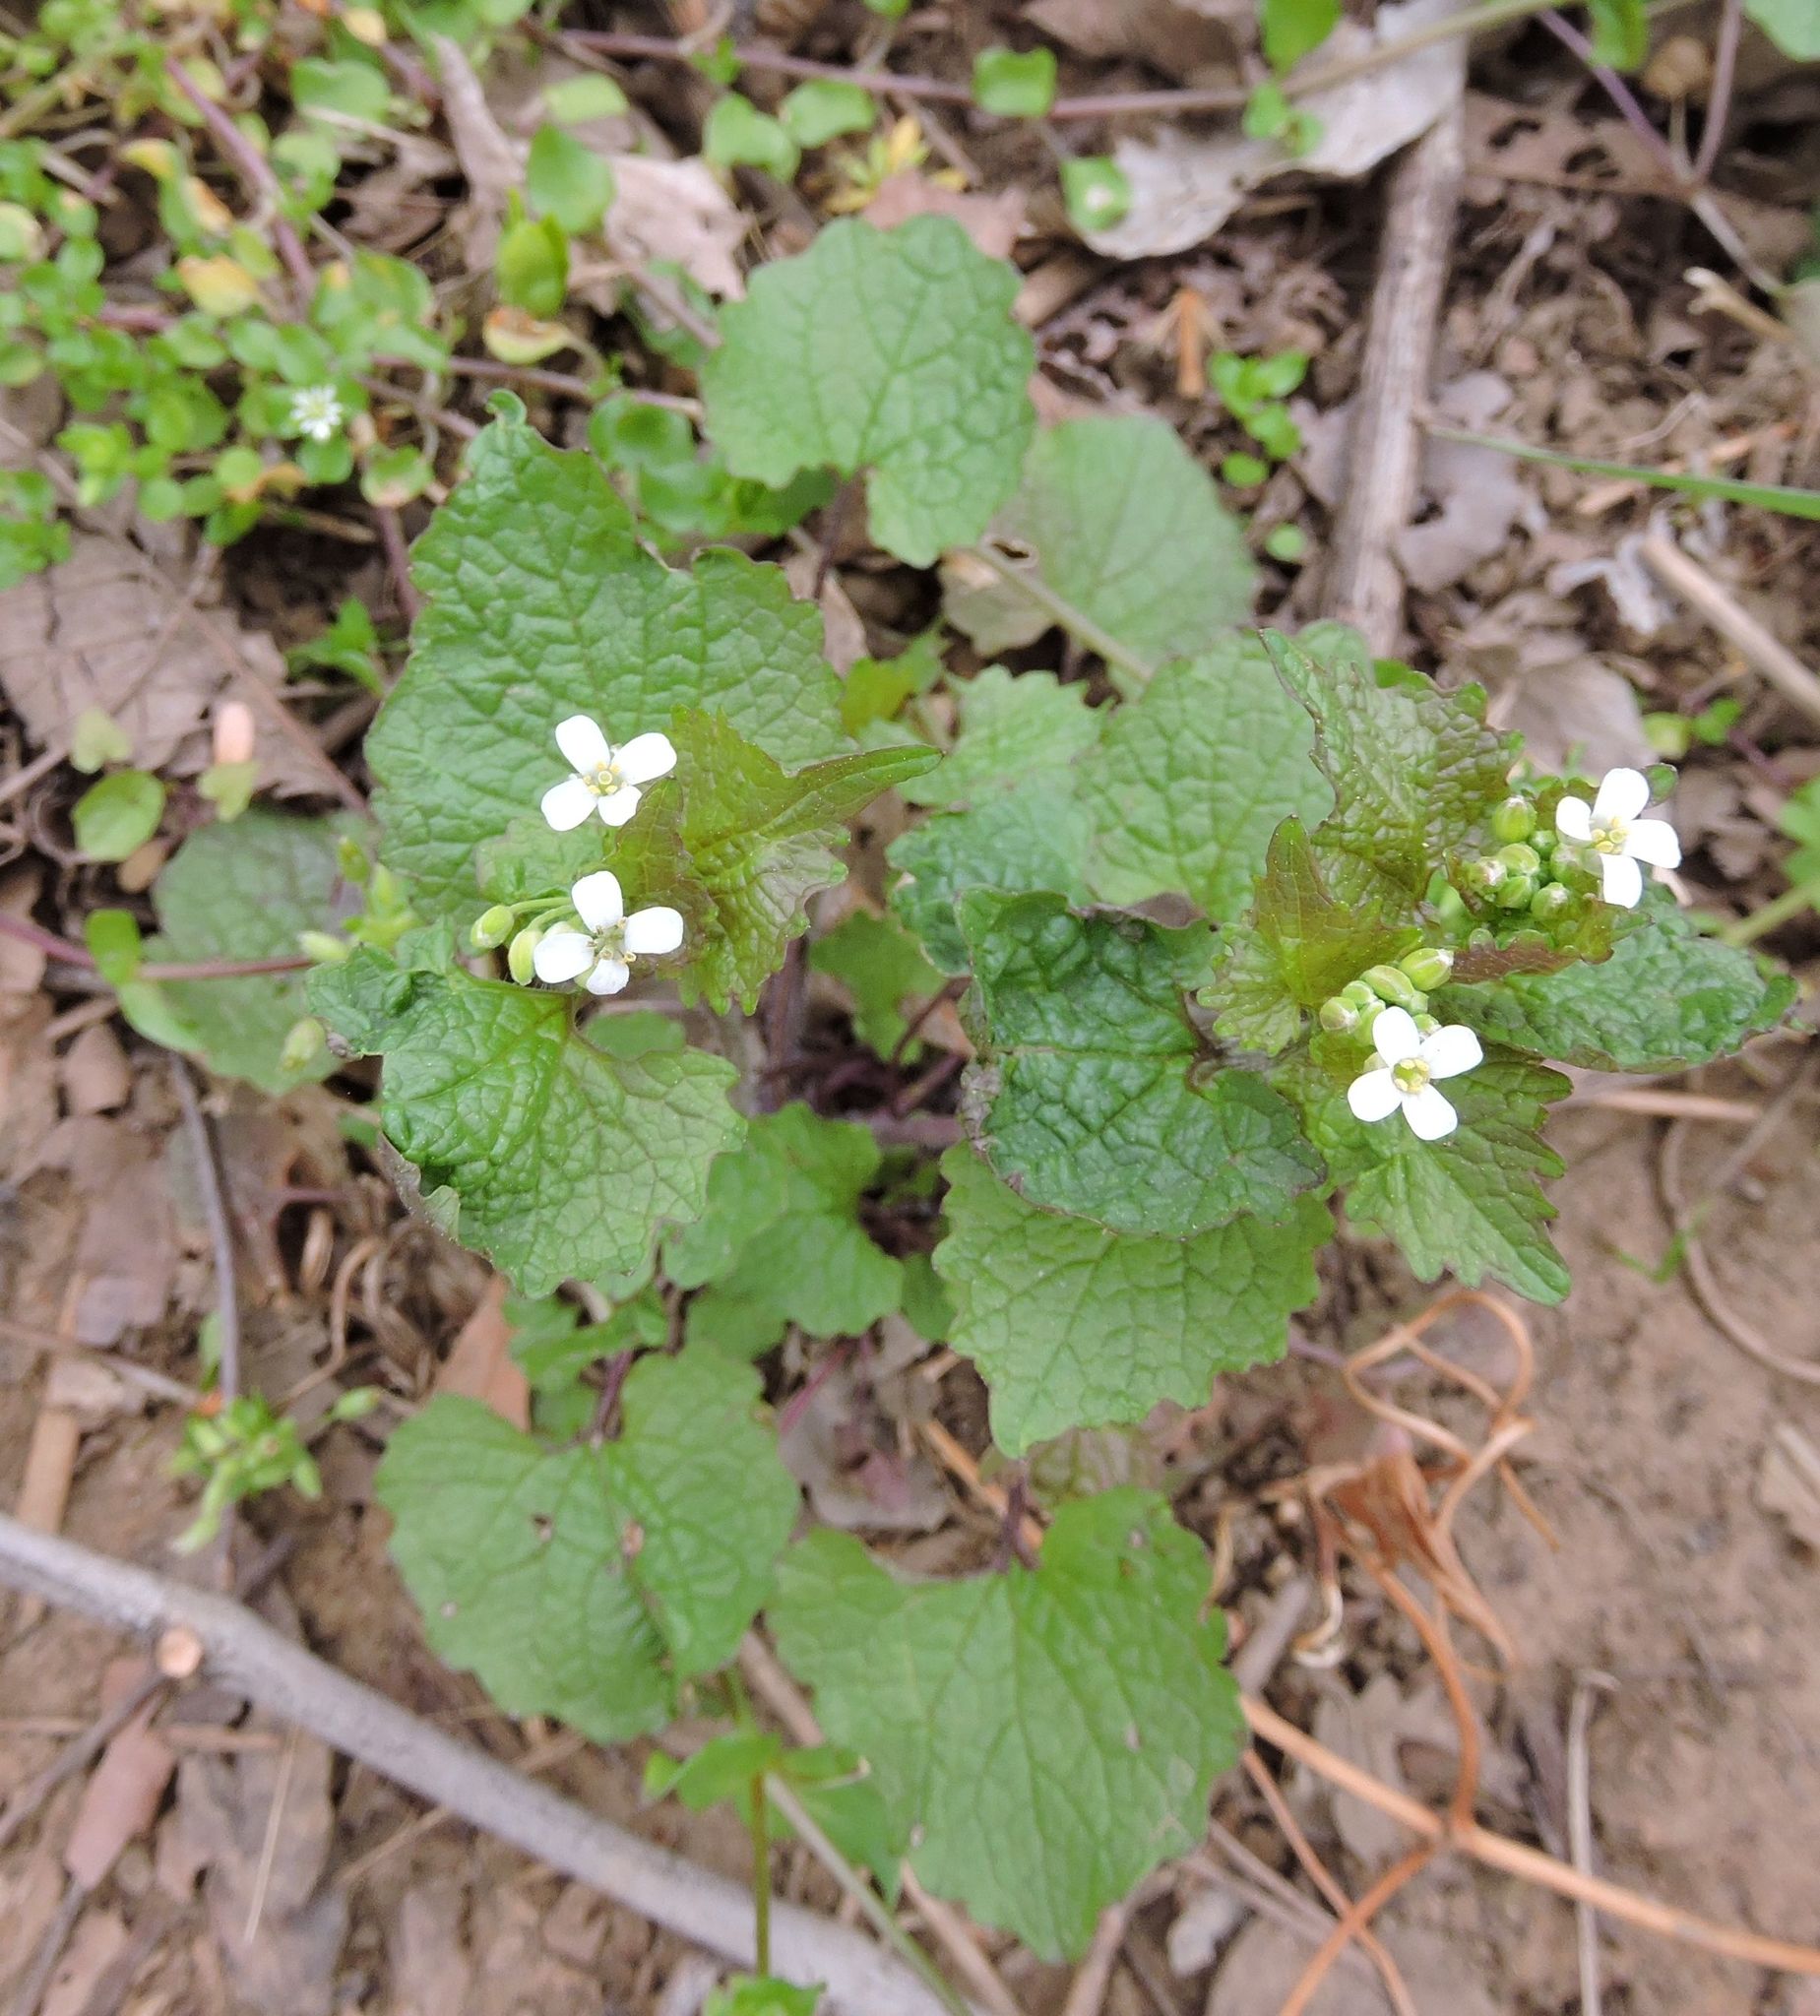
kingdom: Plantae
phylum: Tracheophyta
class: Magnoliopsida
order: Brassicales
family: Brassicaceae
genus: Alliaria
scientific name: Alliaria petiolata
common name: Garlic mustard
